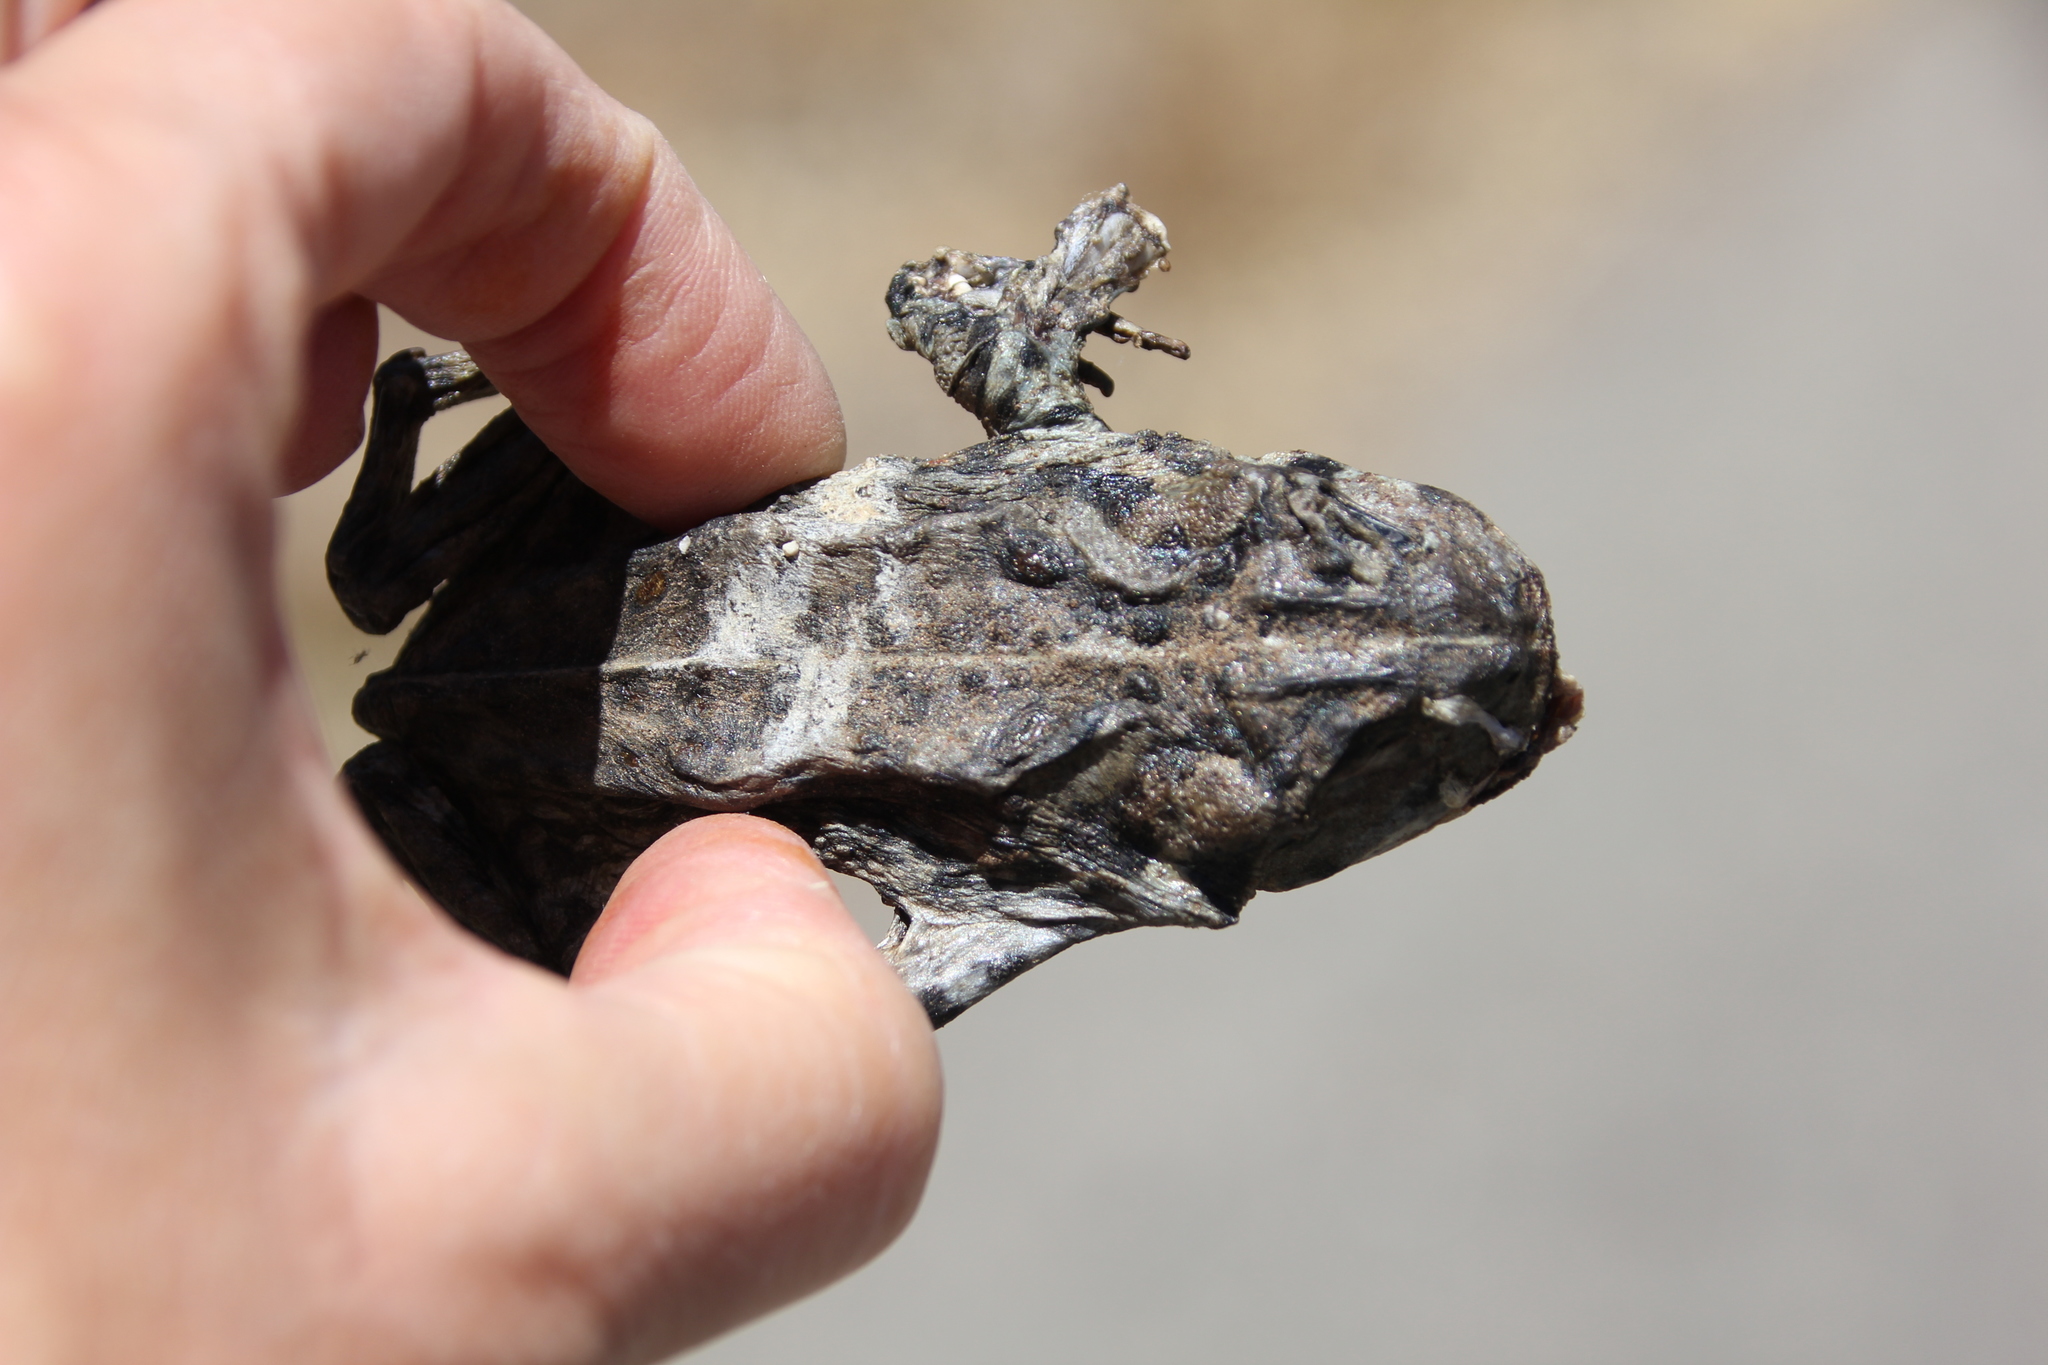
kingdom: Animalia
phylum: Chordata
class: Amphibia
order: Anura
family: Bufonidae
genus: Anaxyrus
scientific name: Anaxyrus boreas
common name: Western toad
